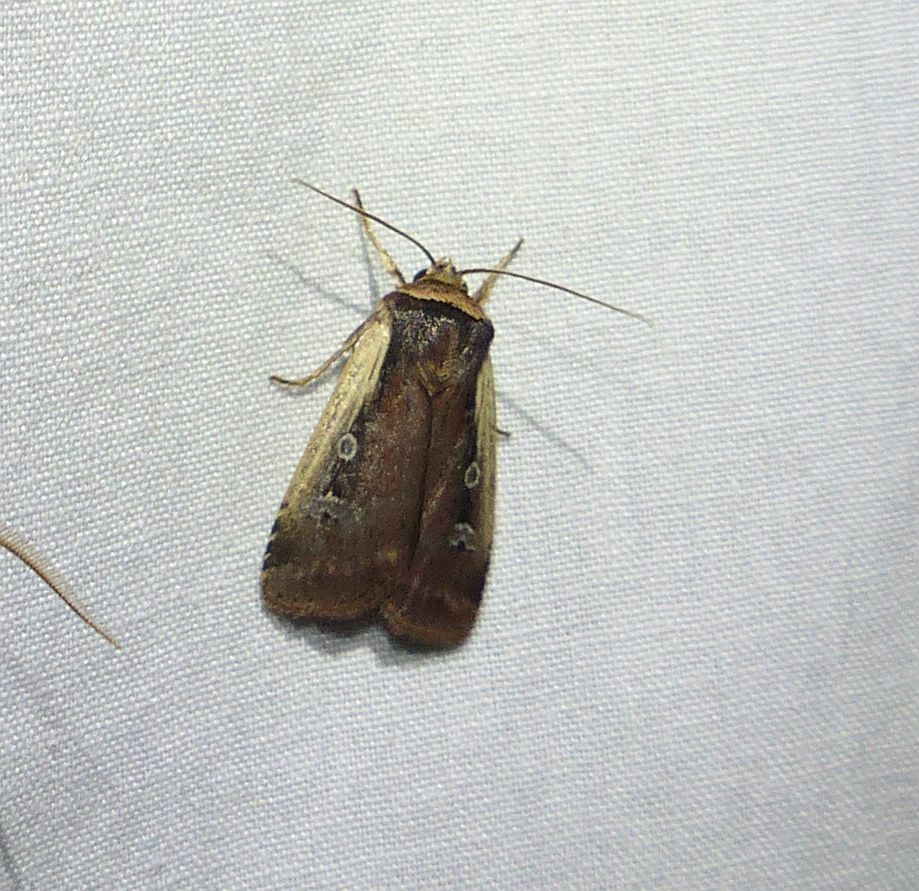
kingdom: Animalia
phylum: Arthropoda
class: Insecta
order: Lepidoptera
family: Noctuidae
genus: Ochropleura
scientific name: Ochropleura implecta
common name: Flame-shouldered dart
